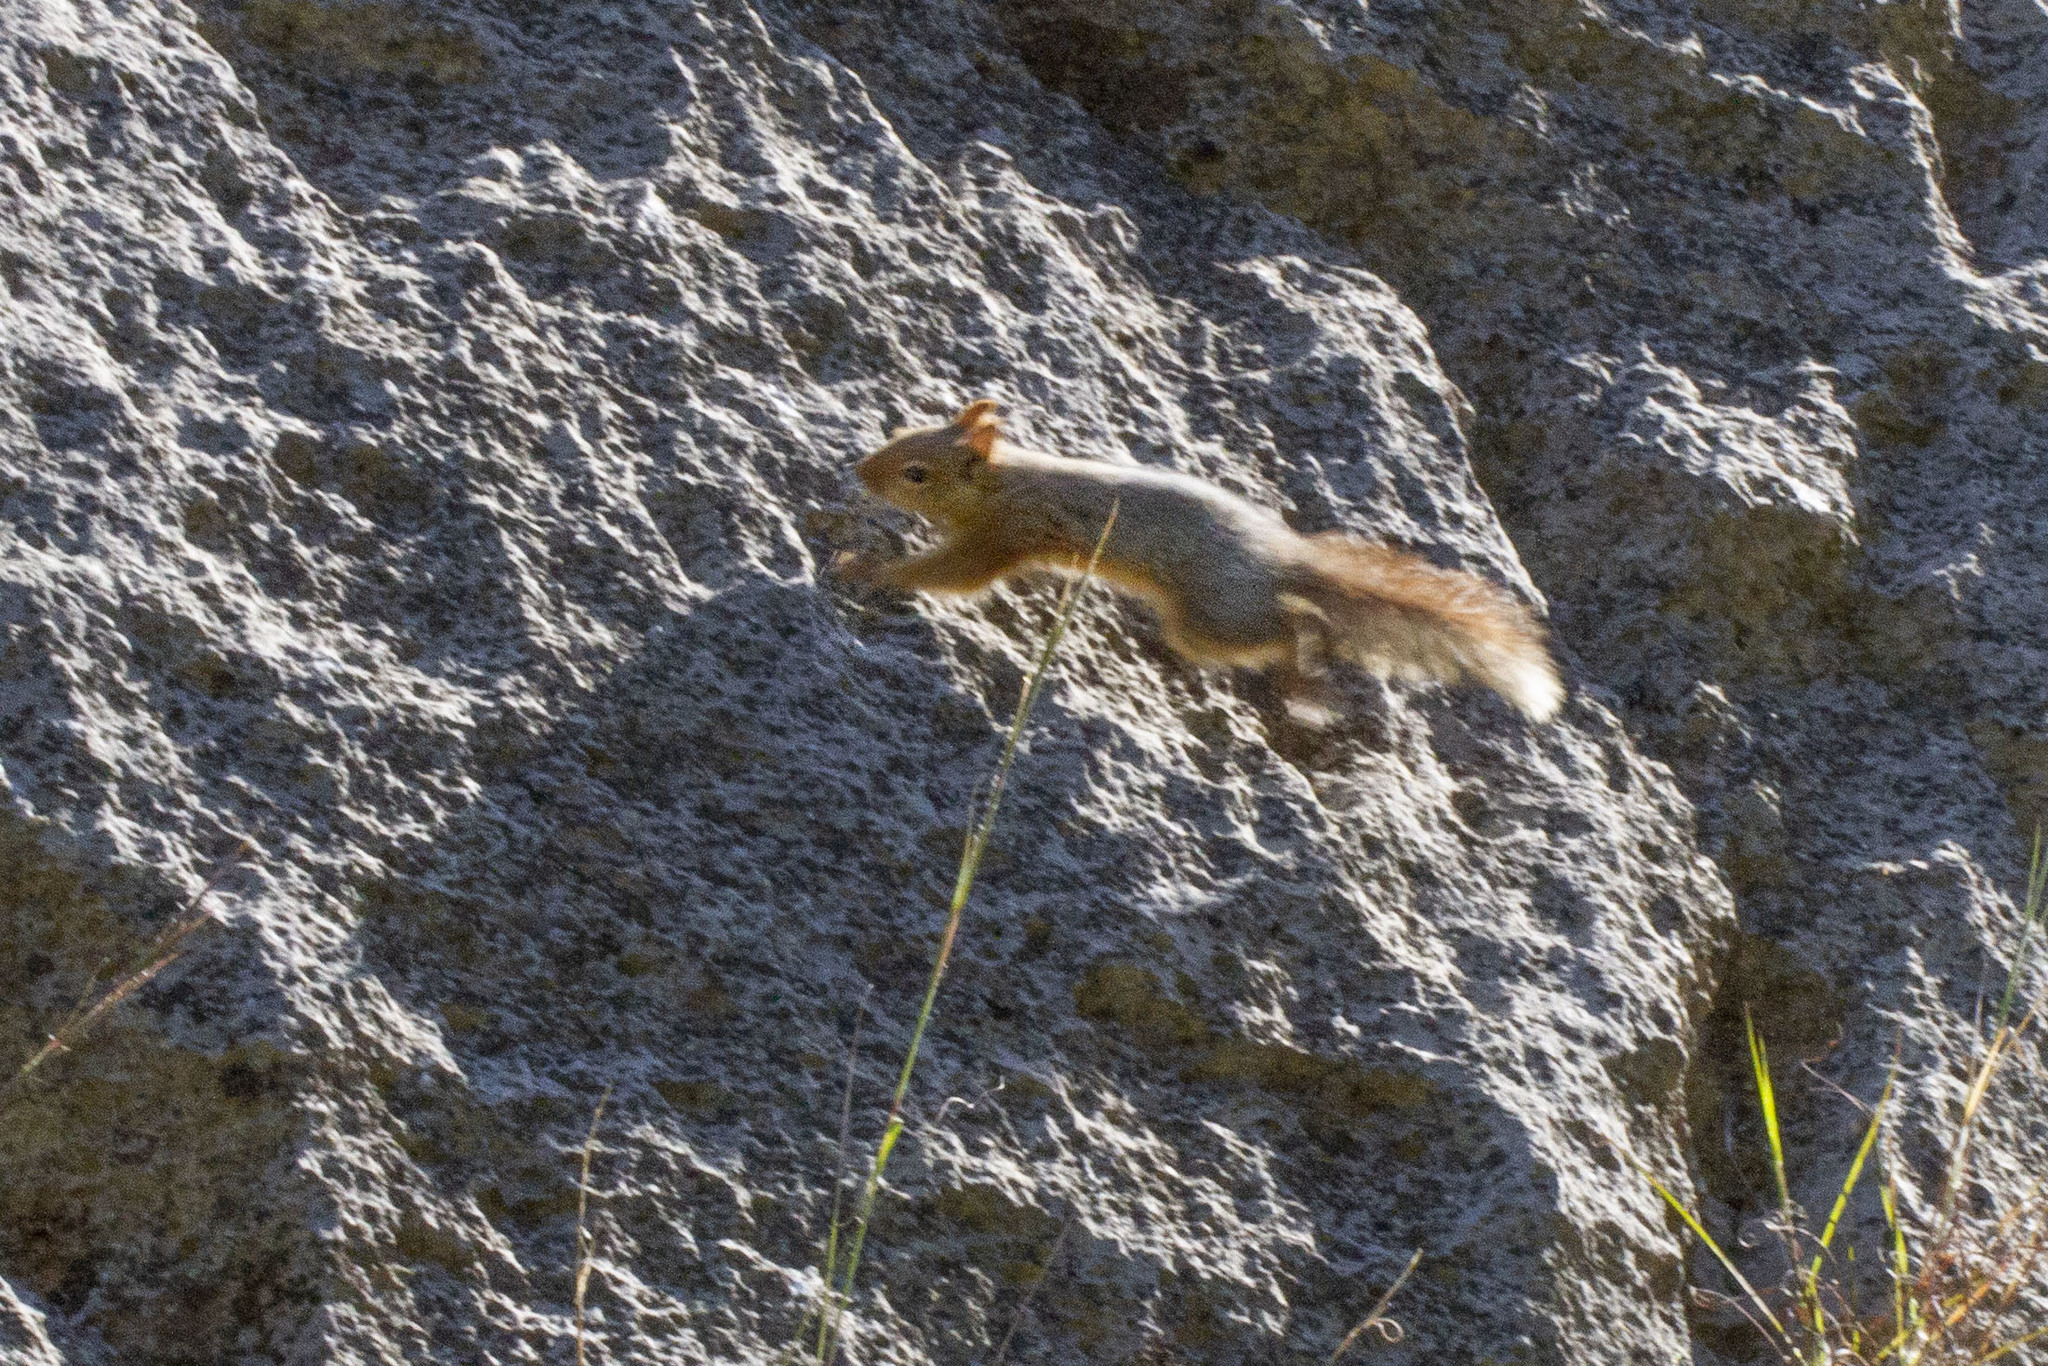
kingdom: Animalia
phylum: Chordata
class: Mammalia
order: Rodentia
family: Sciuridae
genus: Sciurus
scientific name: Sciurus anomalus
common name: Caucasian squirrel
